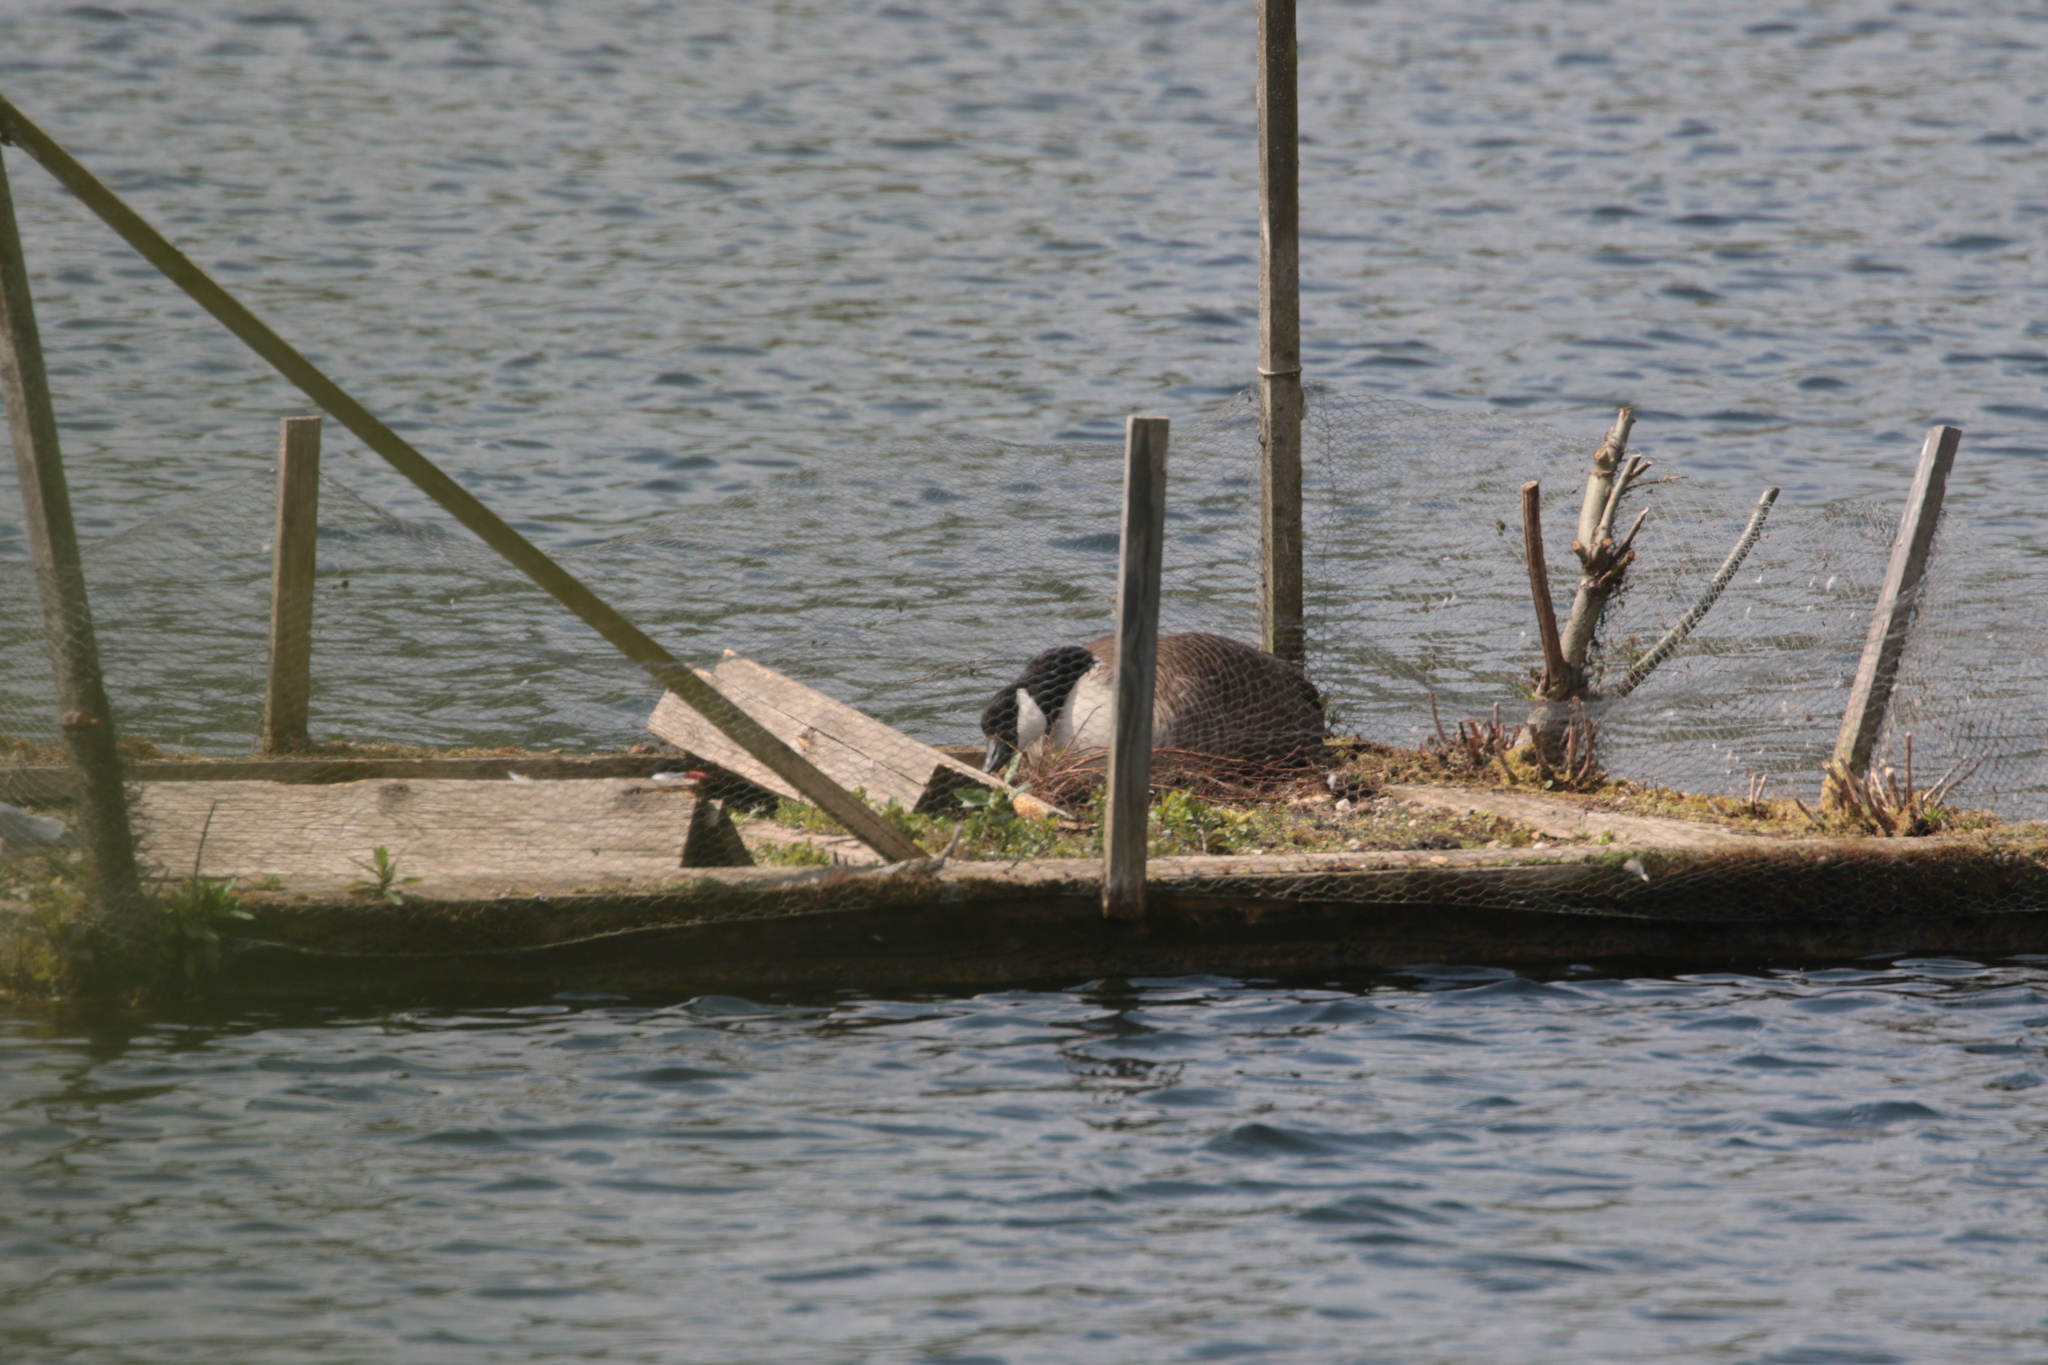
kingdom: Animalia
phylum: Chordata
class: Aves
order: Anseriformes
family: Anatidae
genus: Branta
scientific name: Branta canadensis
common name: Canada goose
